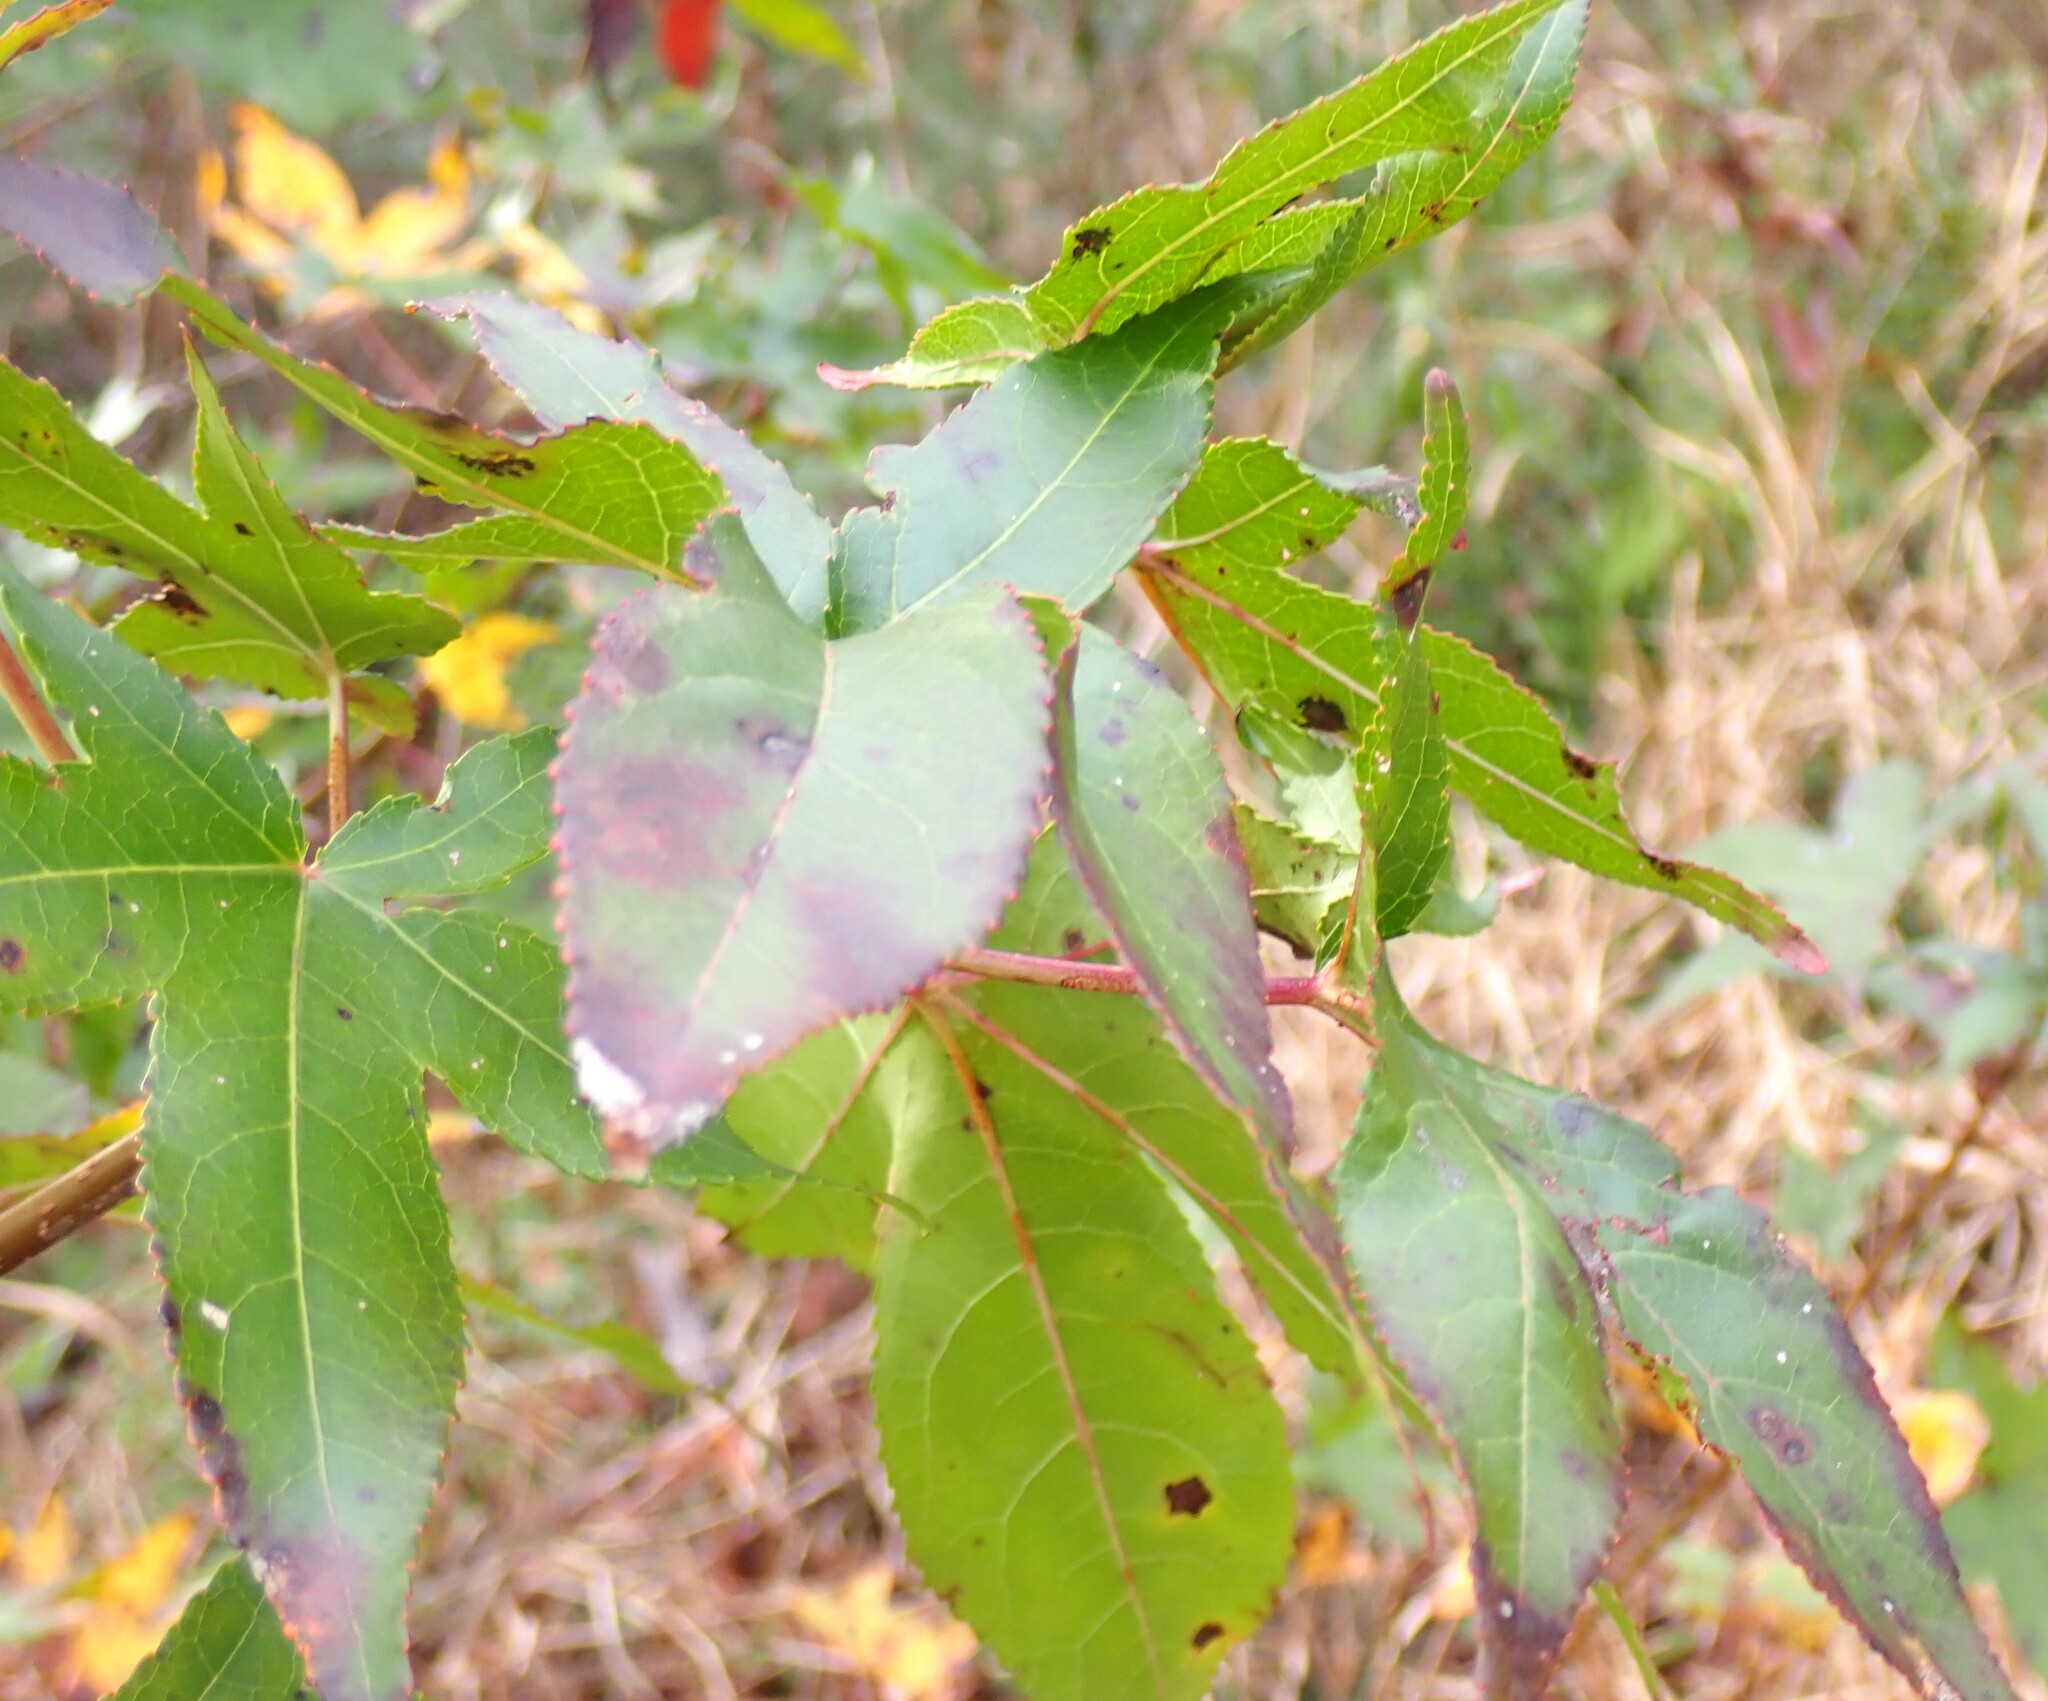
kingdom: Plantae
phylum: Tracheophyta
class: Magnoliopsida
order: Saxifragales
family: Altingiaceae
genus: Liquidambar
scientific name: Liquidambar styraciflua
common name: Sweet gum
